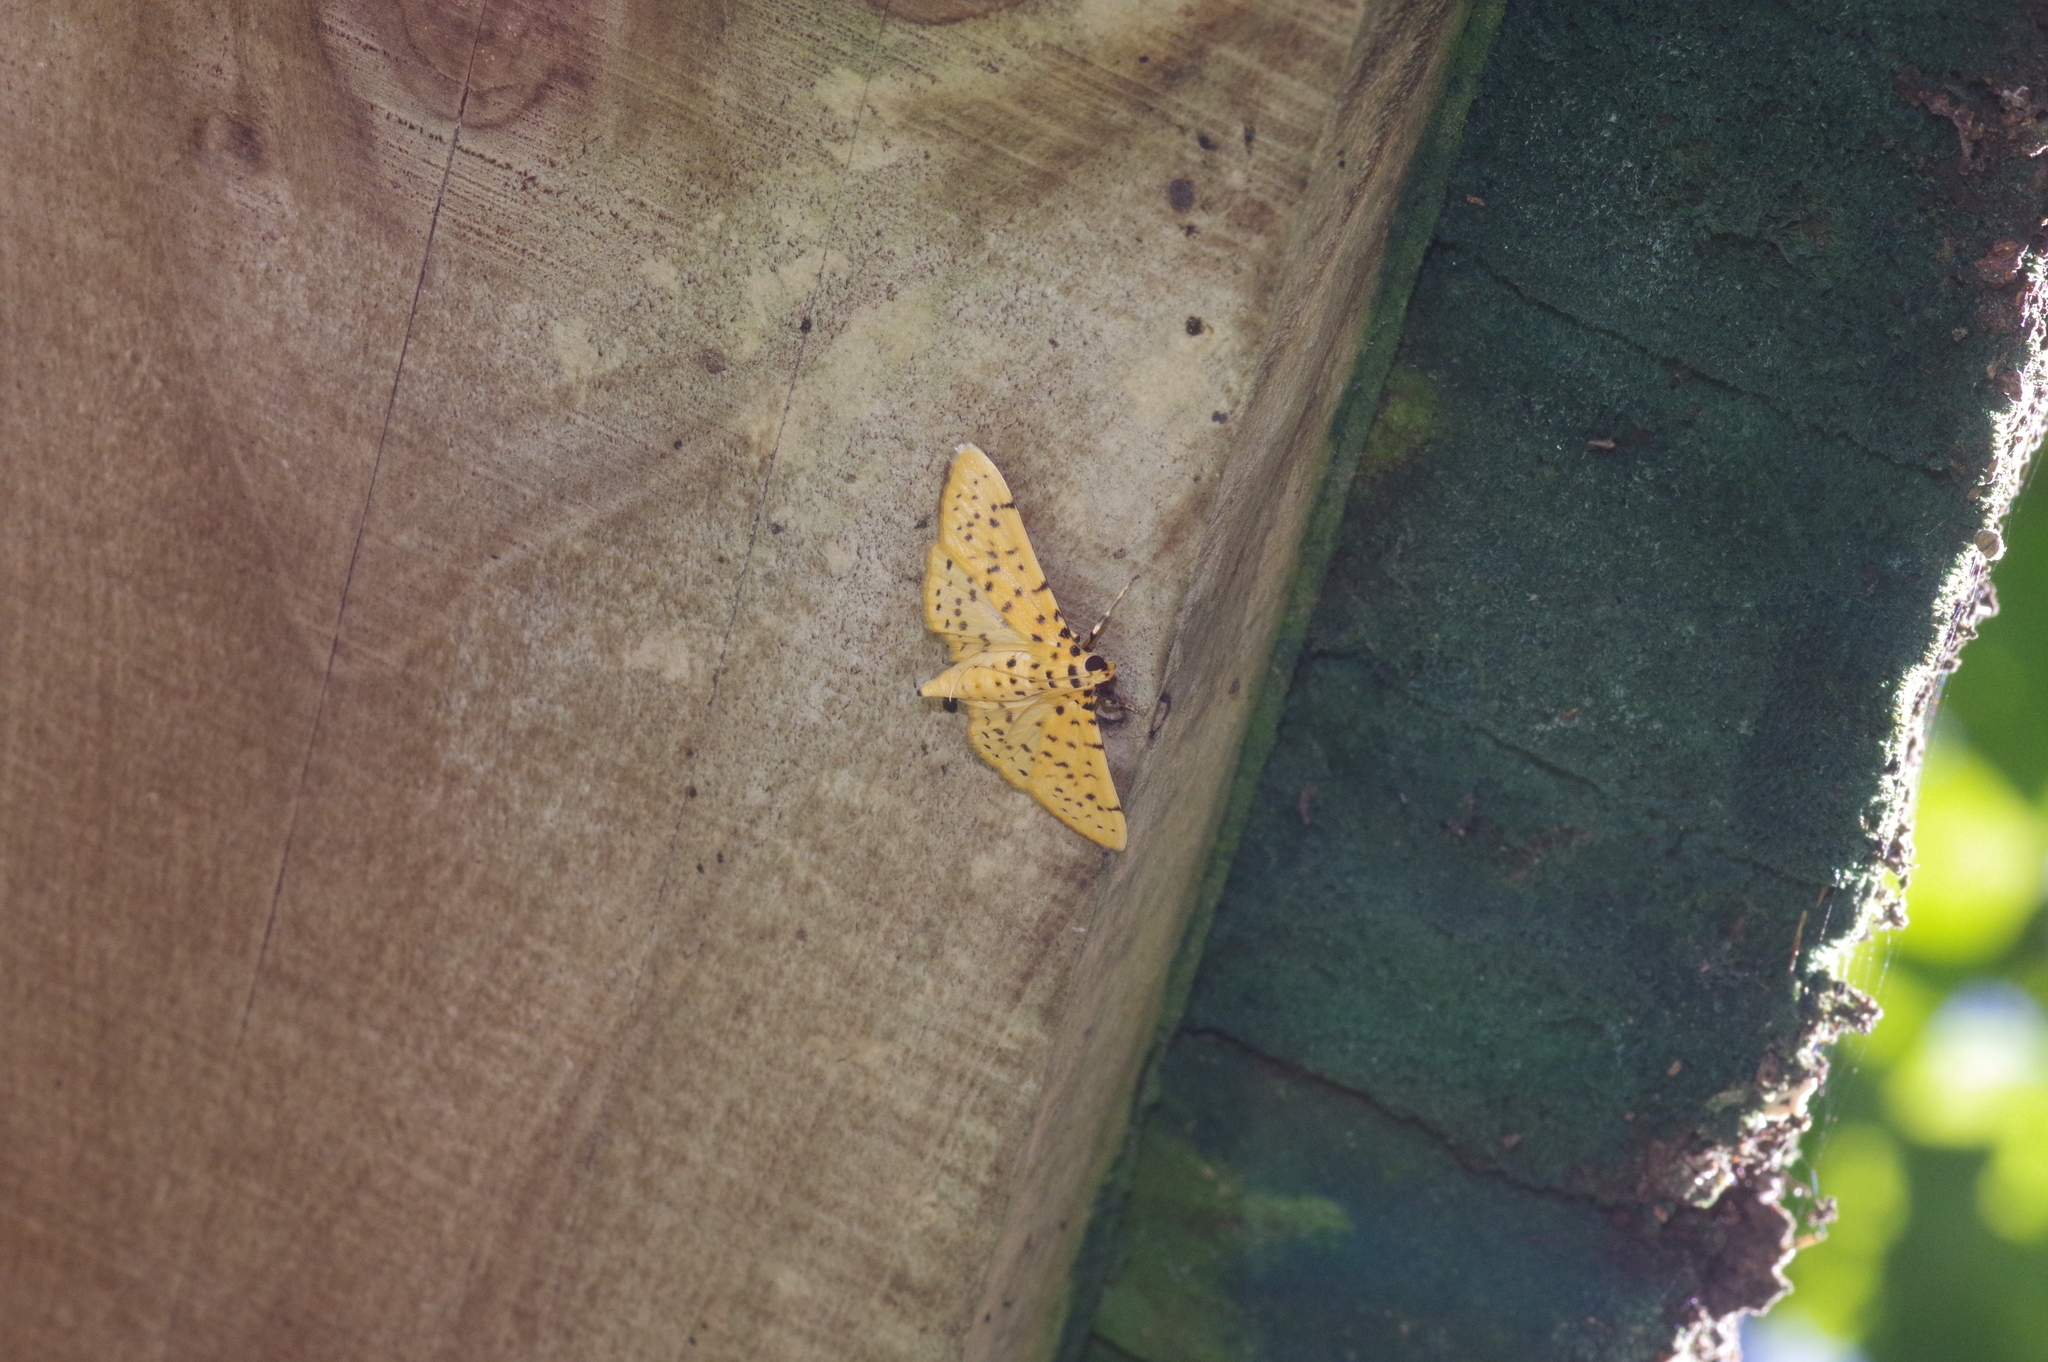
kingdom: Animalia
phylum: Arthropoda
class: Insecta
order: Lepidoptera
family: Crambidae
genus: Conogethes
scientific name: Conogethes punctiferalis
